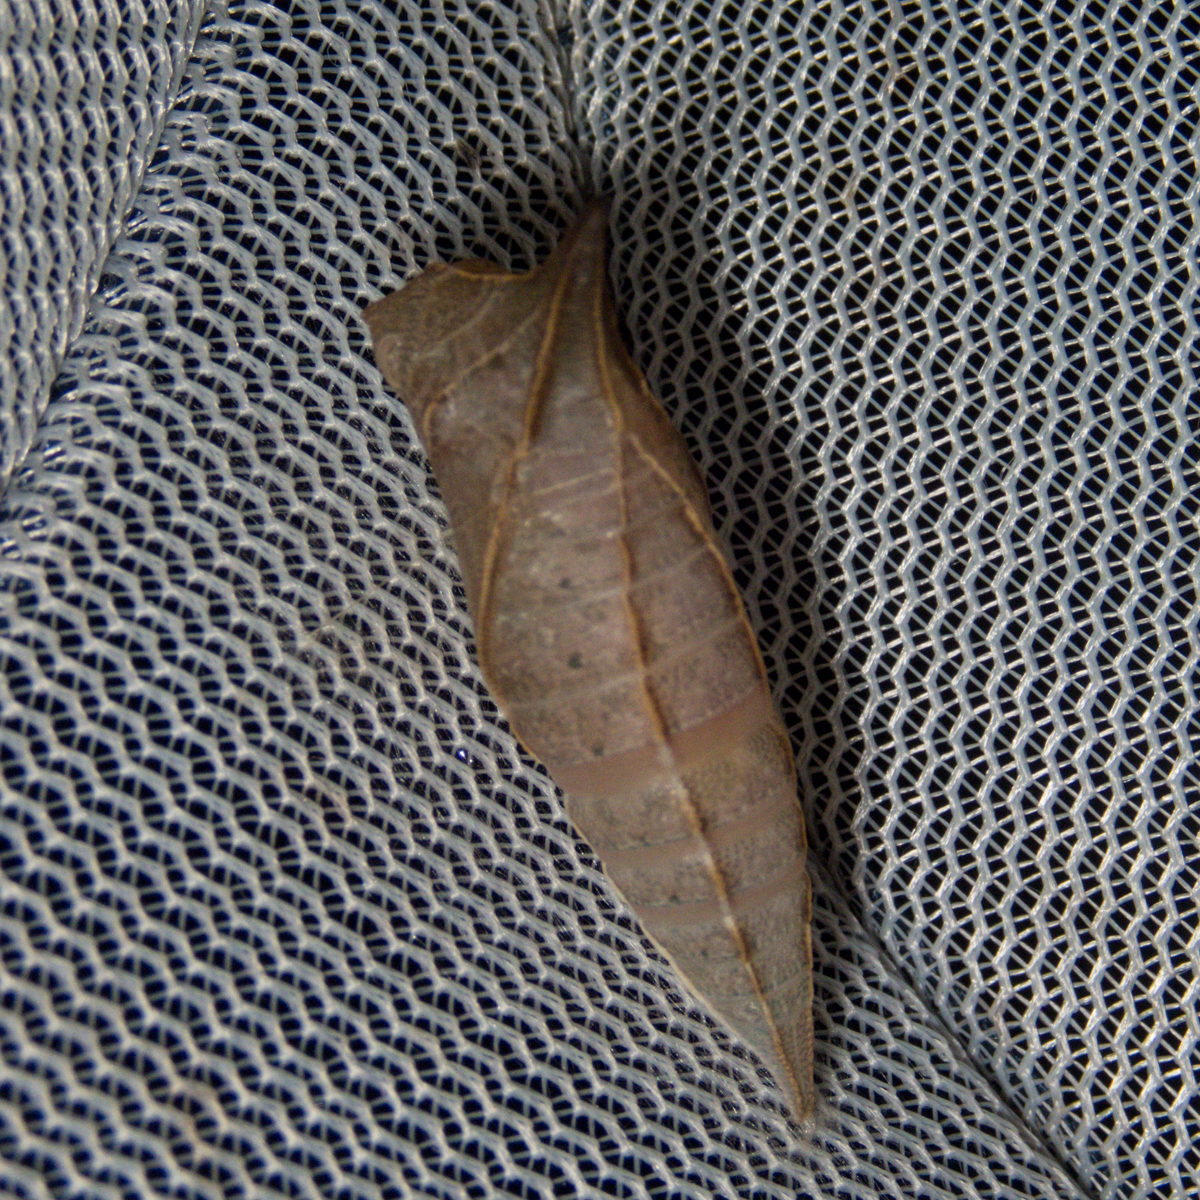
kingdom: Fungi
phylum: Ascomycota
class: Sordariomycetes
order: Microascales
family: Microascaceae
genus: Graphium
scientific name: Graphium sarpedon
